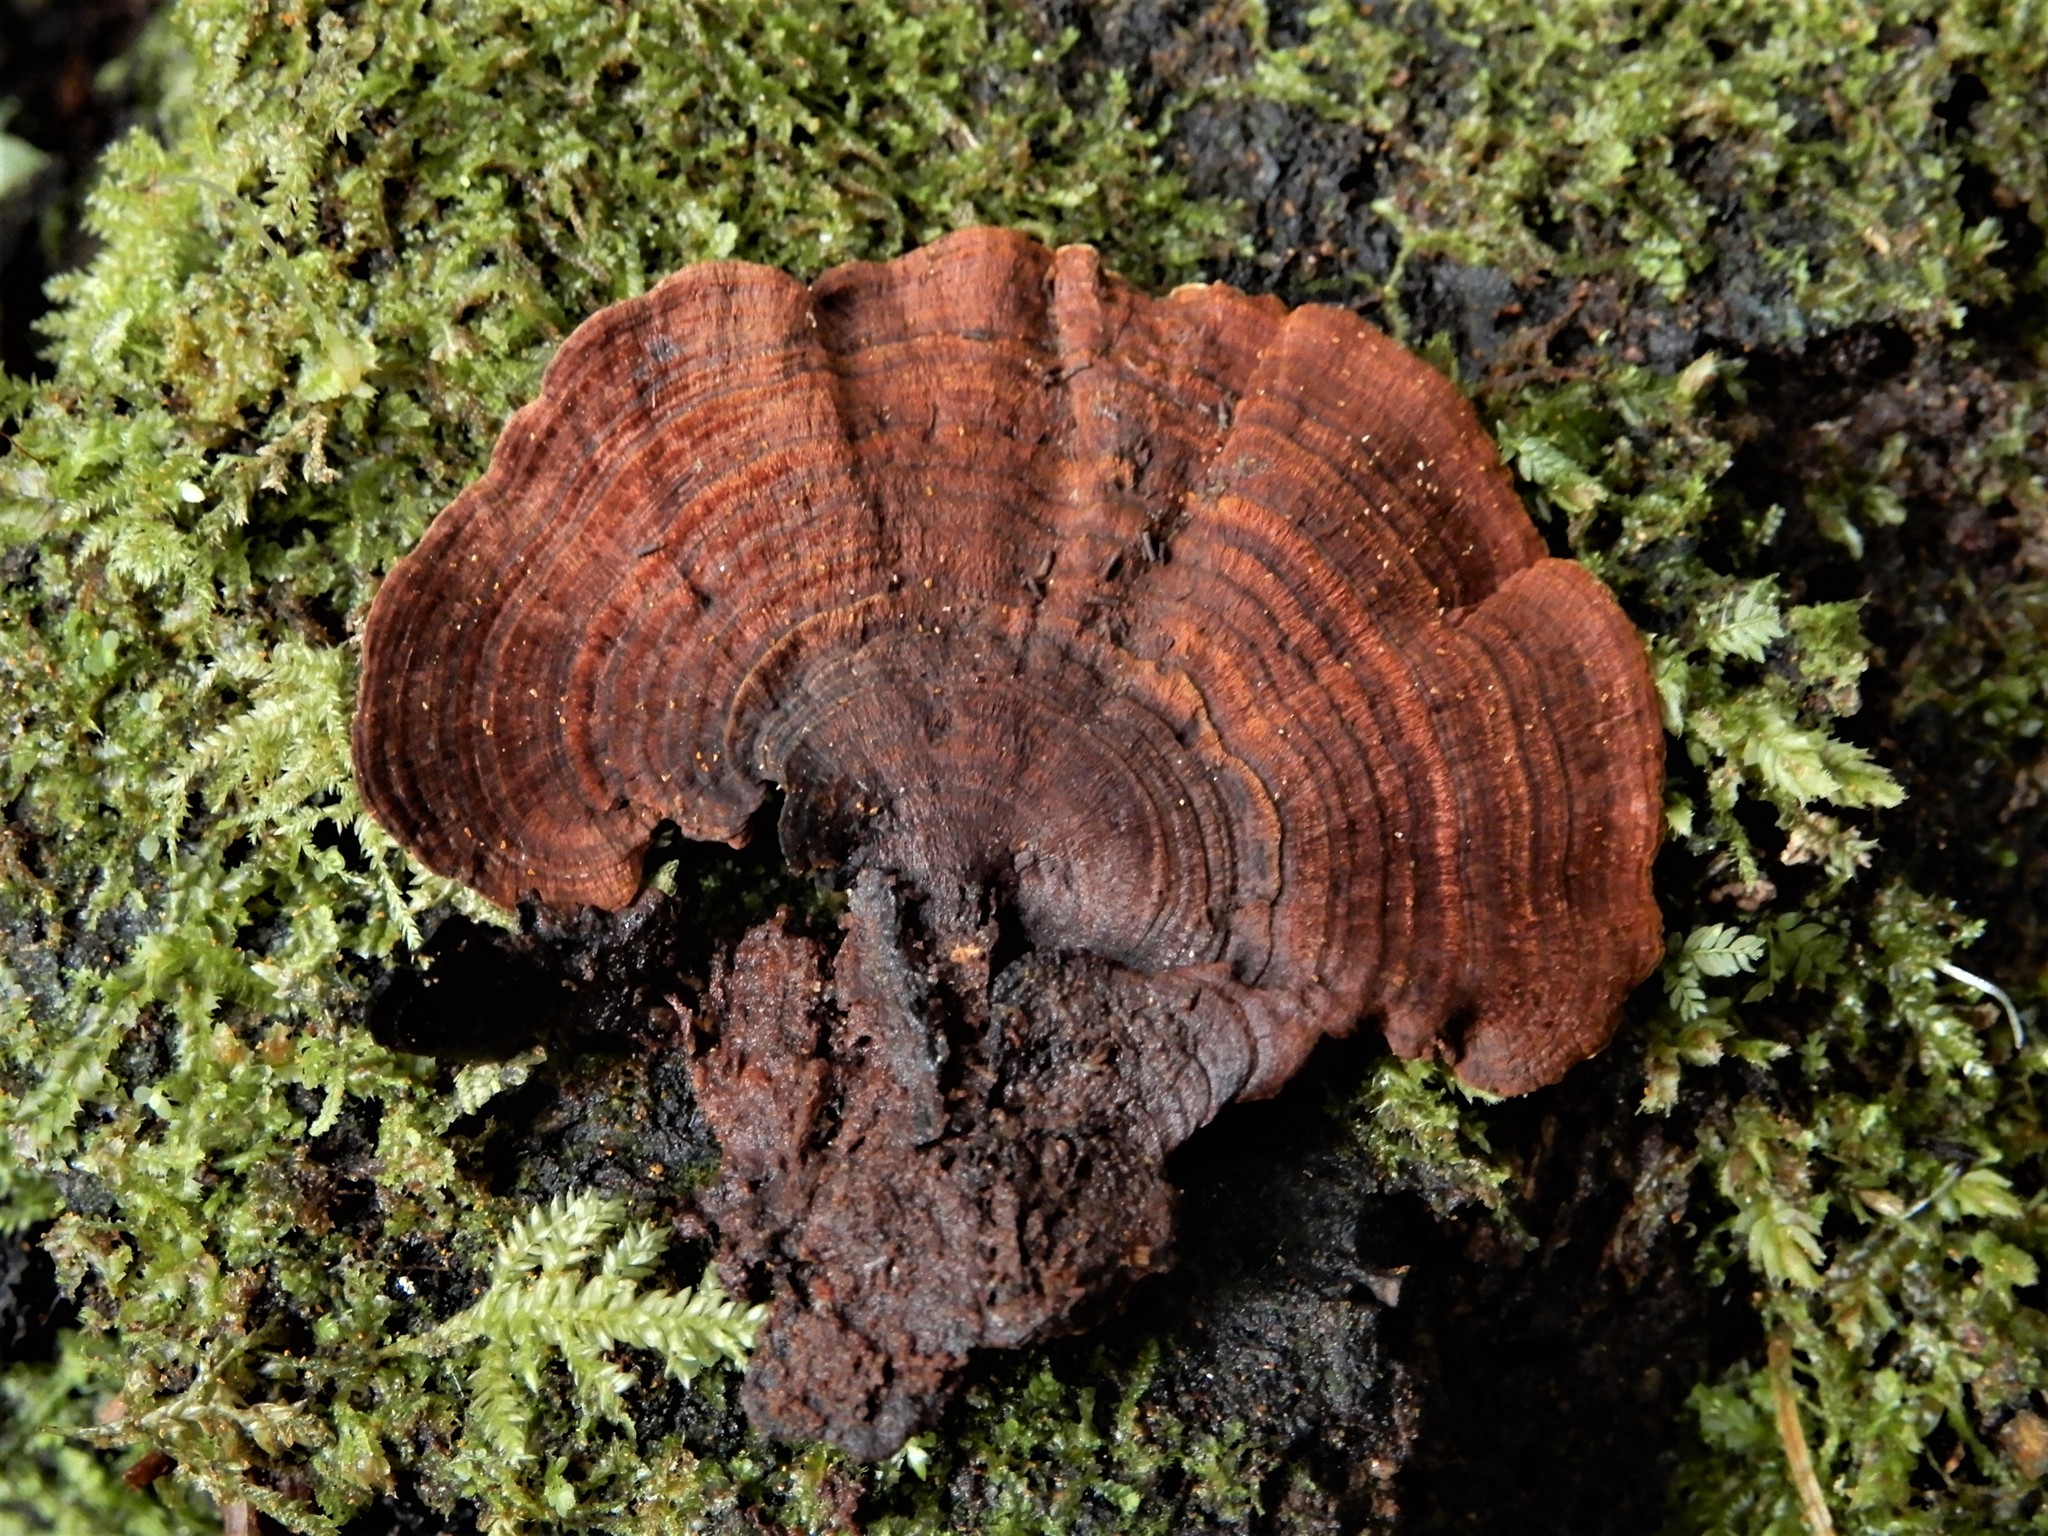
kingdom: Fungi
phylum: Basidiomycota
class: Agaricomycetes
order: Hymenochaetales
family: Hymenochaetaceae
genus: Hymenochaete
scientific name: Hymenochaete microcycla
